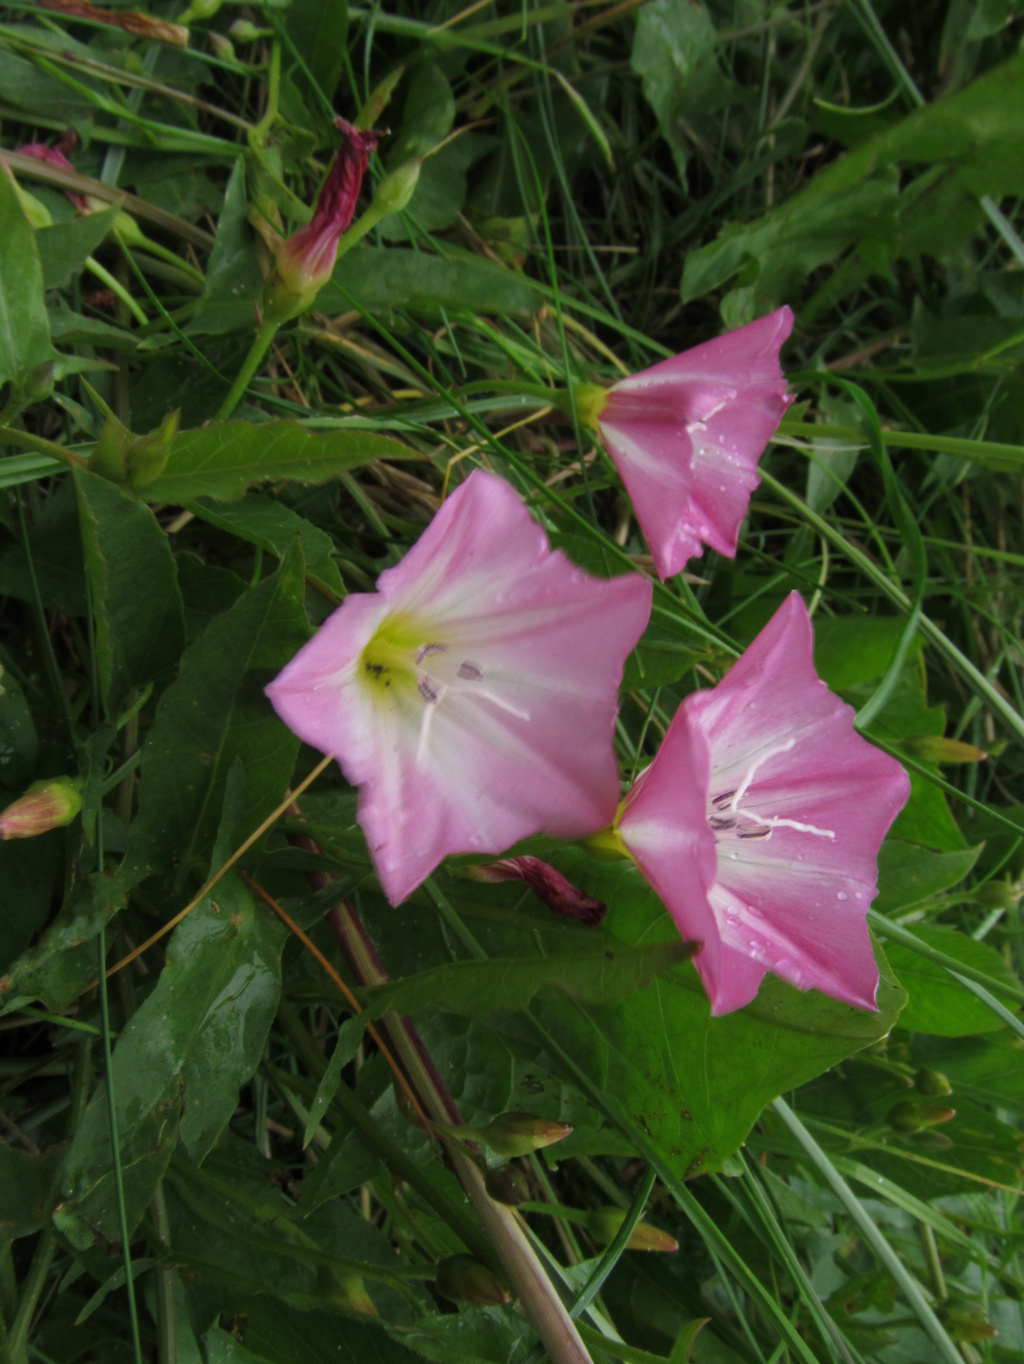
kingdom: Plantae
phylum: Tracheophyta
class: Magnoliopsida
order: Solanales
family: Convolvulaceae
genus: Convolvulus
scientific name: Convolvulus arvensis
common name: Field bindweed
